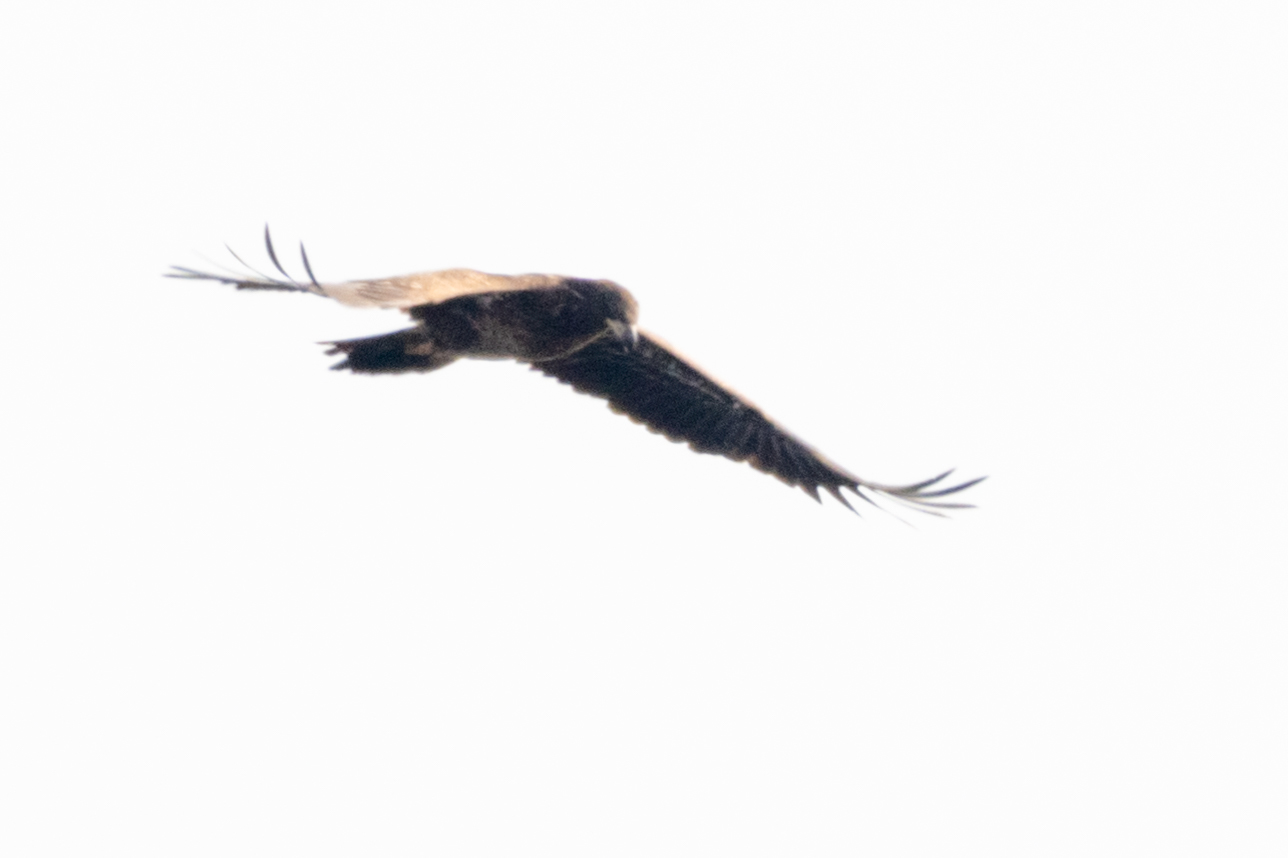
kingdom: Animalia
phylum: Chordata
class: Aves
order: Accipitriformes
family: Accipitridae
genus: Haliaeetus
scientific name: Haliaeetus leucocephalus
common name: Bald eagle
